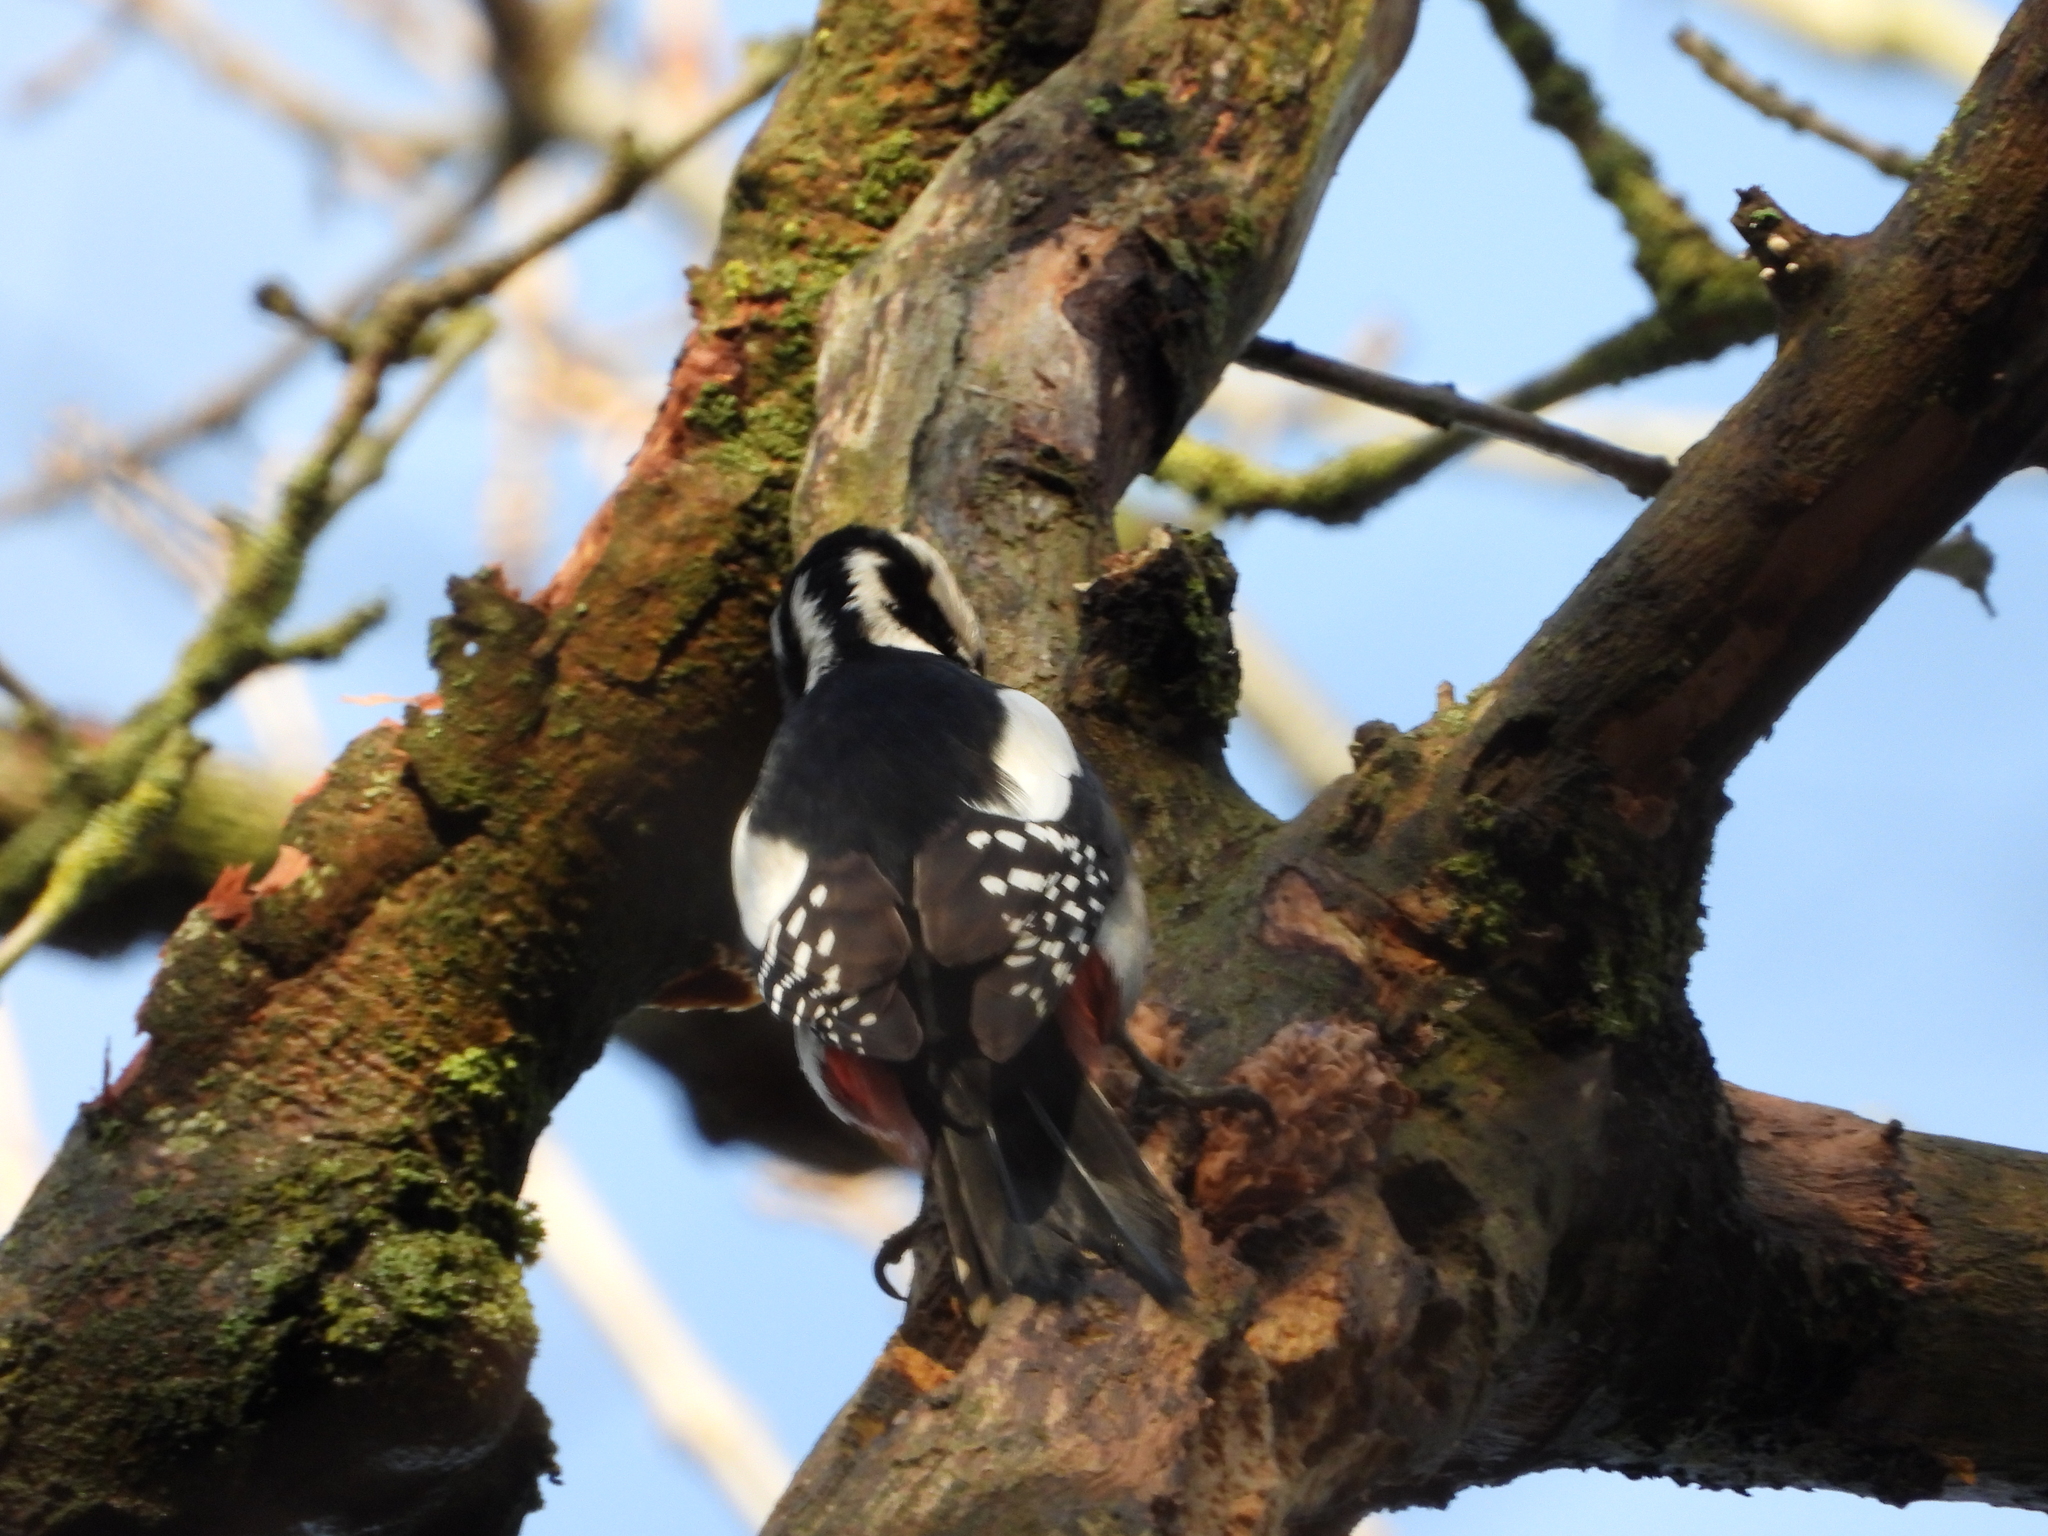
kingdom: Animalia
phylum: Chordata
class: Aves
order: Piciformes
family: Picidae
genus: Dendrocopos
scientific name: Dendrocopos major
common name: Great spotted woodpecker
